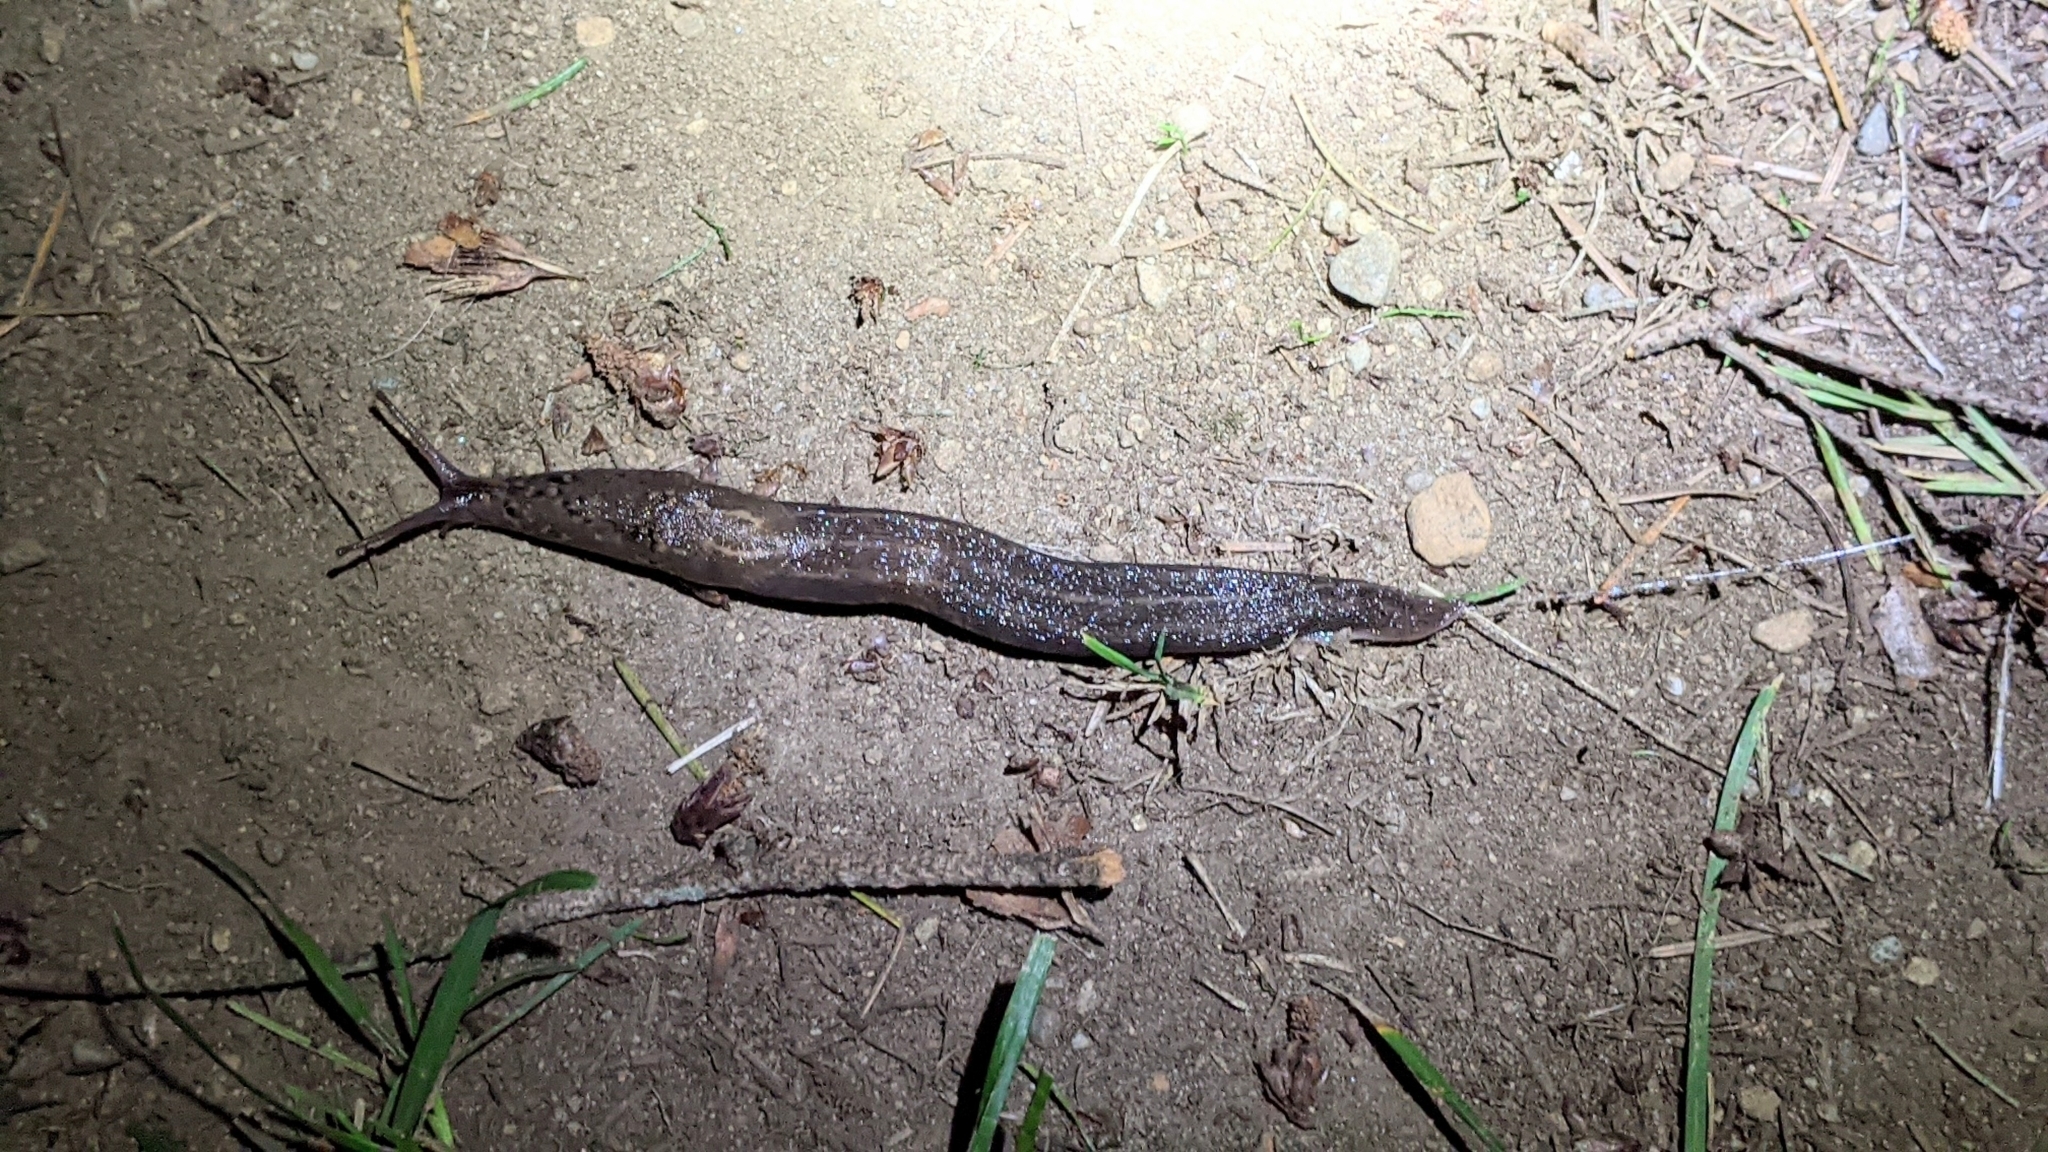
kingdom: Animalia
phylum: Mollusca
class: Gastropoda
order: Stylommatophora
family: Limacidae
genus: Limax
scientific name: Limax maximus
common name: Great grey slug
